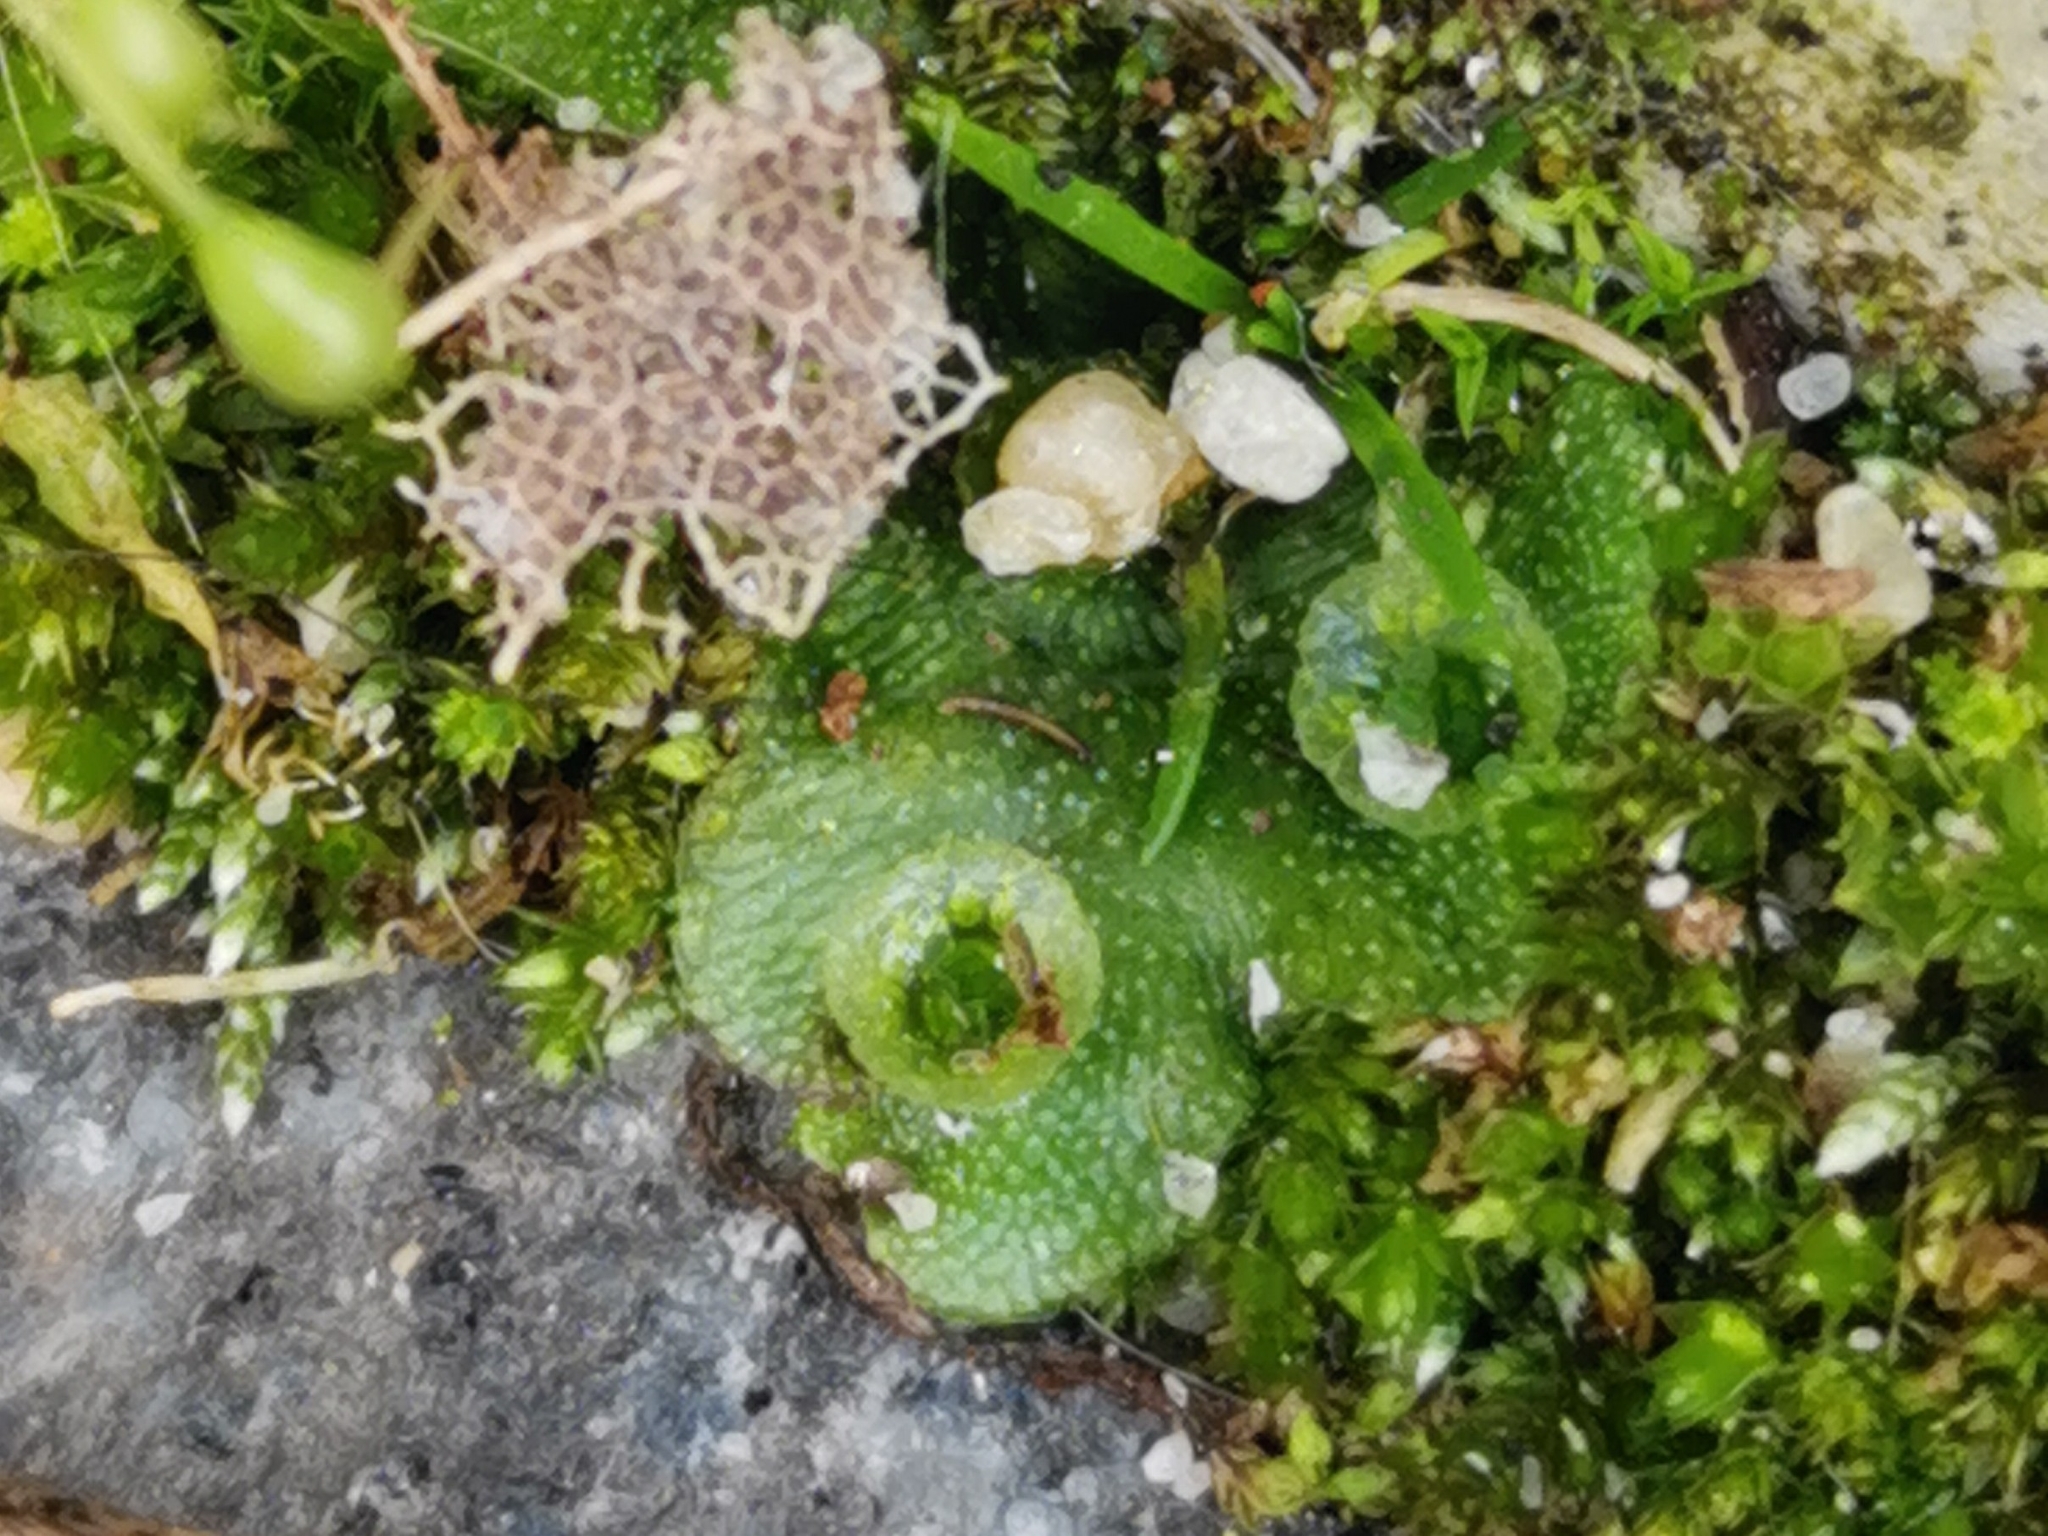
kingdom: Plantae
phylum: Marchantiophyta
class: Marchantiopsida
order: Marchantiales
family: Marchantiaceae
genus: Marchantia
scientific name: Marchantia polymorpha
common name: Common liverwort
